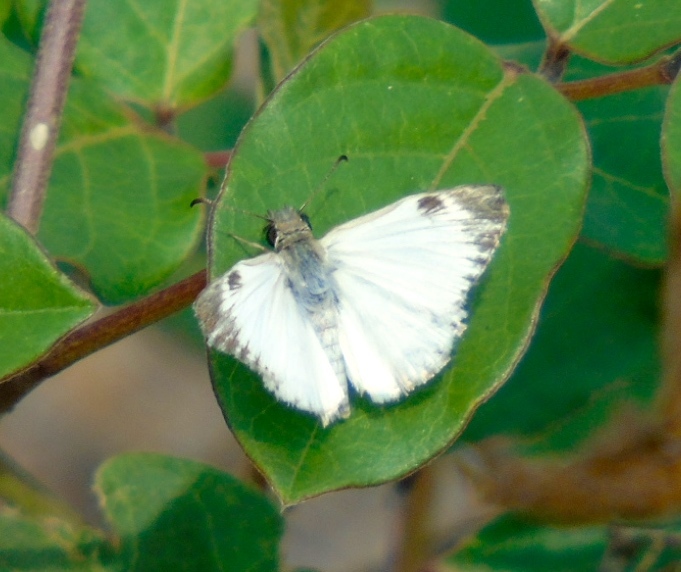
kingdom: Animalia
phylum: Arthropoda
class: Insecta
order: Lepidoptera
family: Hesperiidae
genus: Heliopetes
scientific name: Heliopetes macaira
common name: Turk's-cap white-skipper
